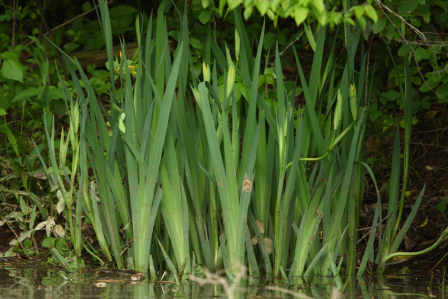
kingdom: Plantae
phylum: Tracheophyta
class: Liliopsida
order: Asparagales
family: Iridaceae
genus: Iris
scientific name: Iris pseudacorus
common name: Yellow flag
